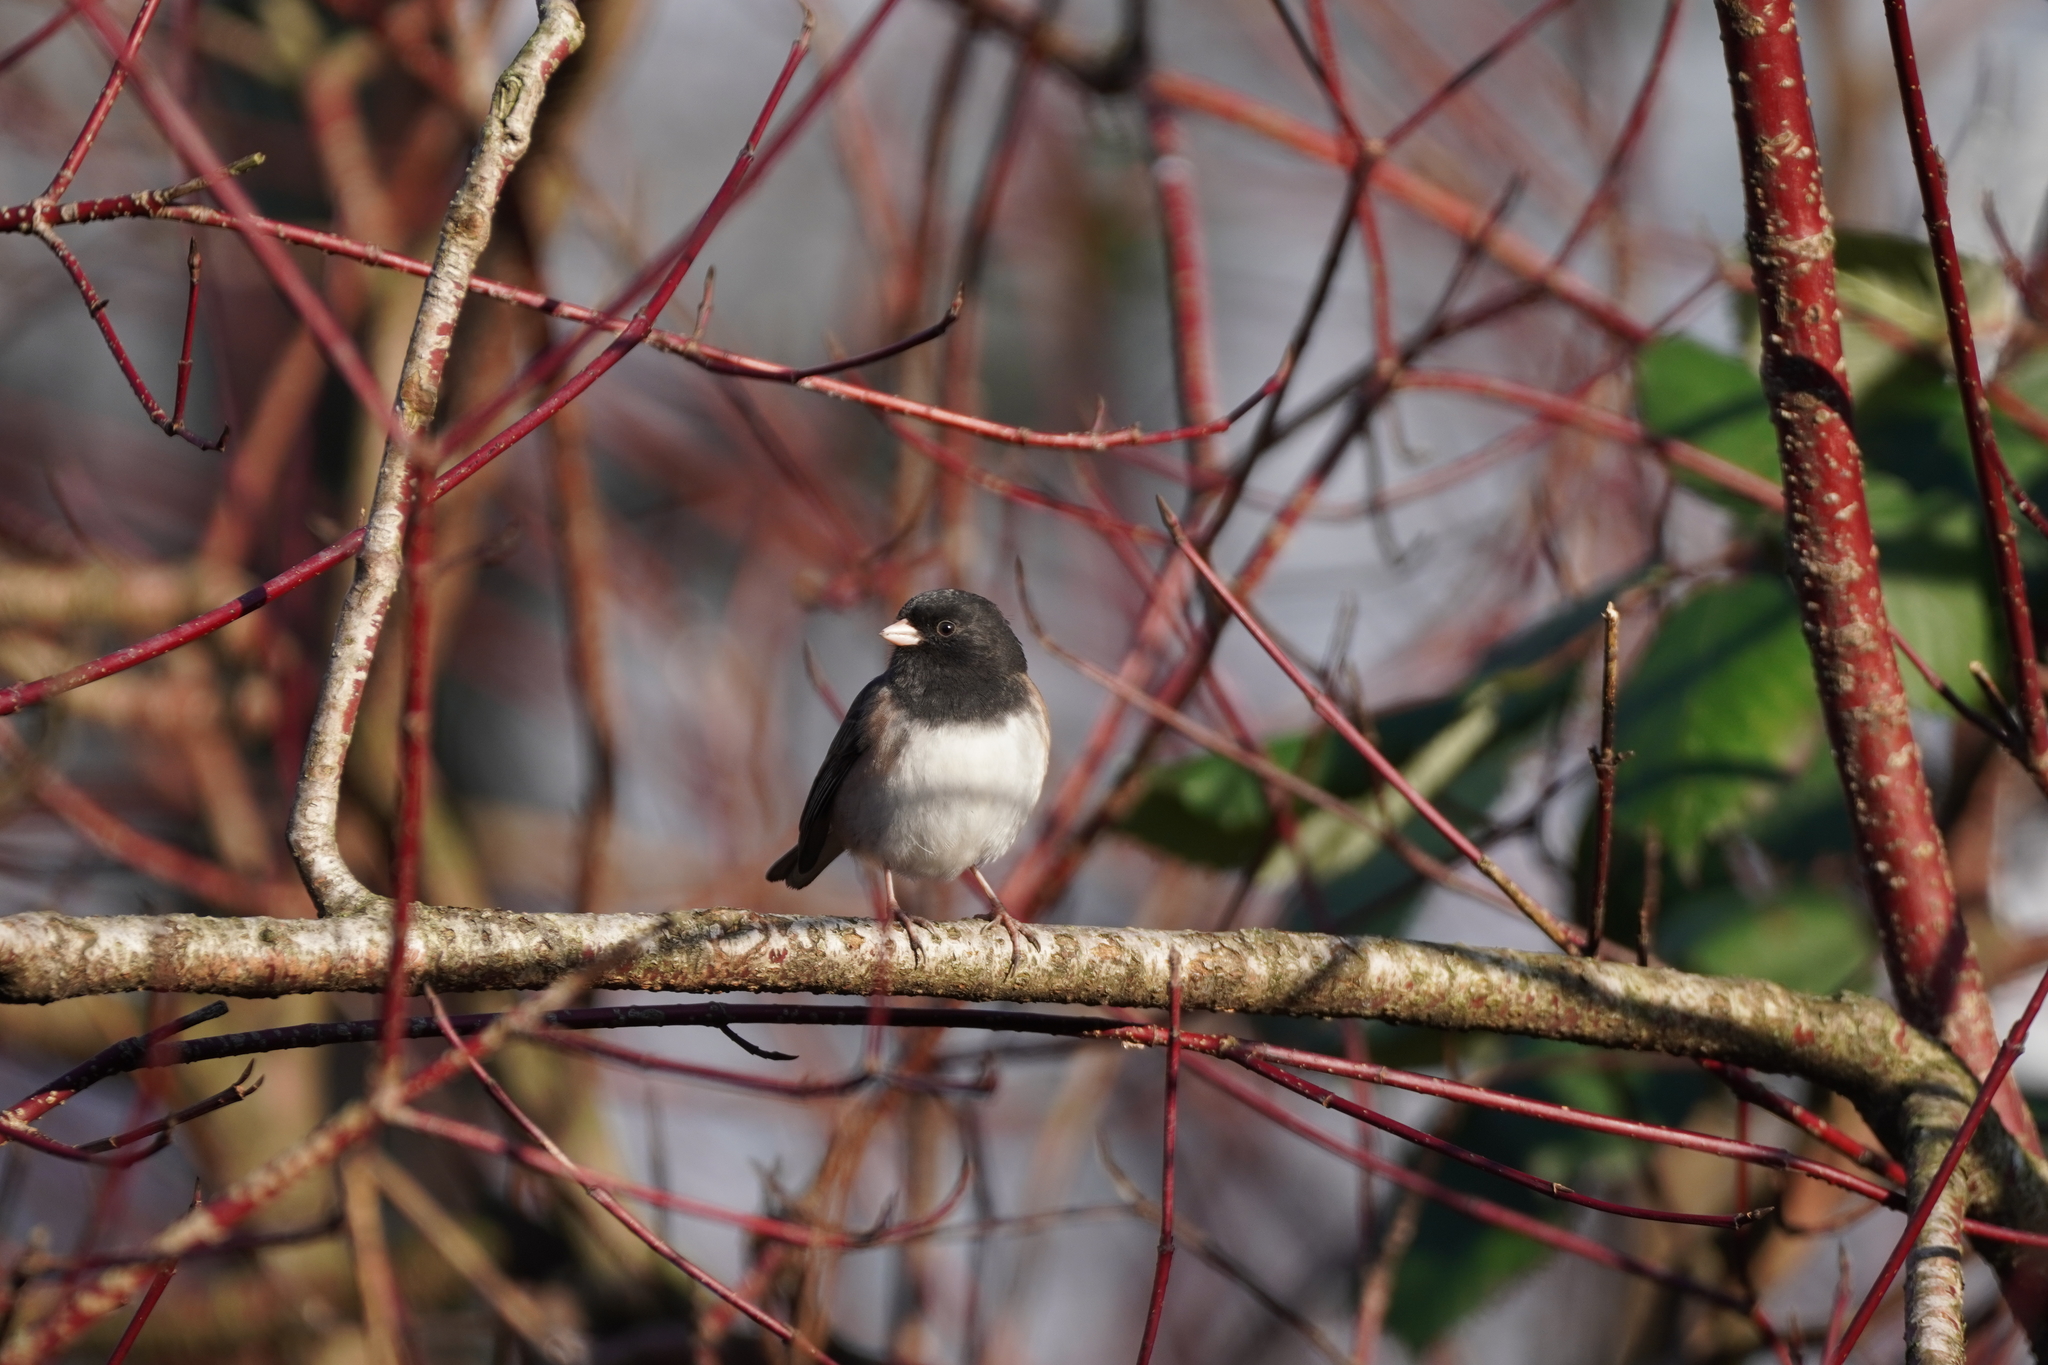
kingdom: Animalia
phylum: Chordata
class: Aves
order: Passeriformes
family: Passerellidae
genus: Junco
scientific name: Junco hyemalis
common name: Dark-eyed junco
